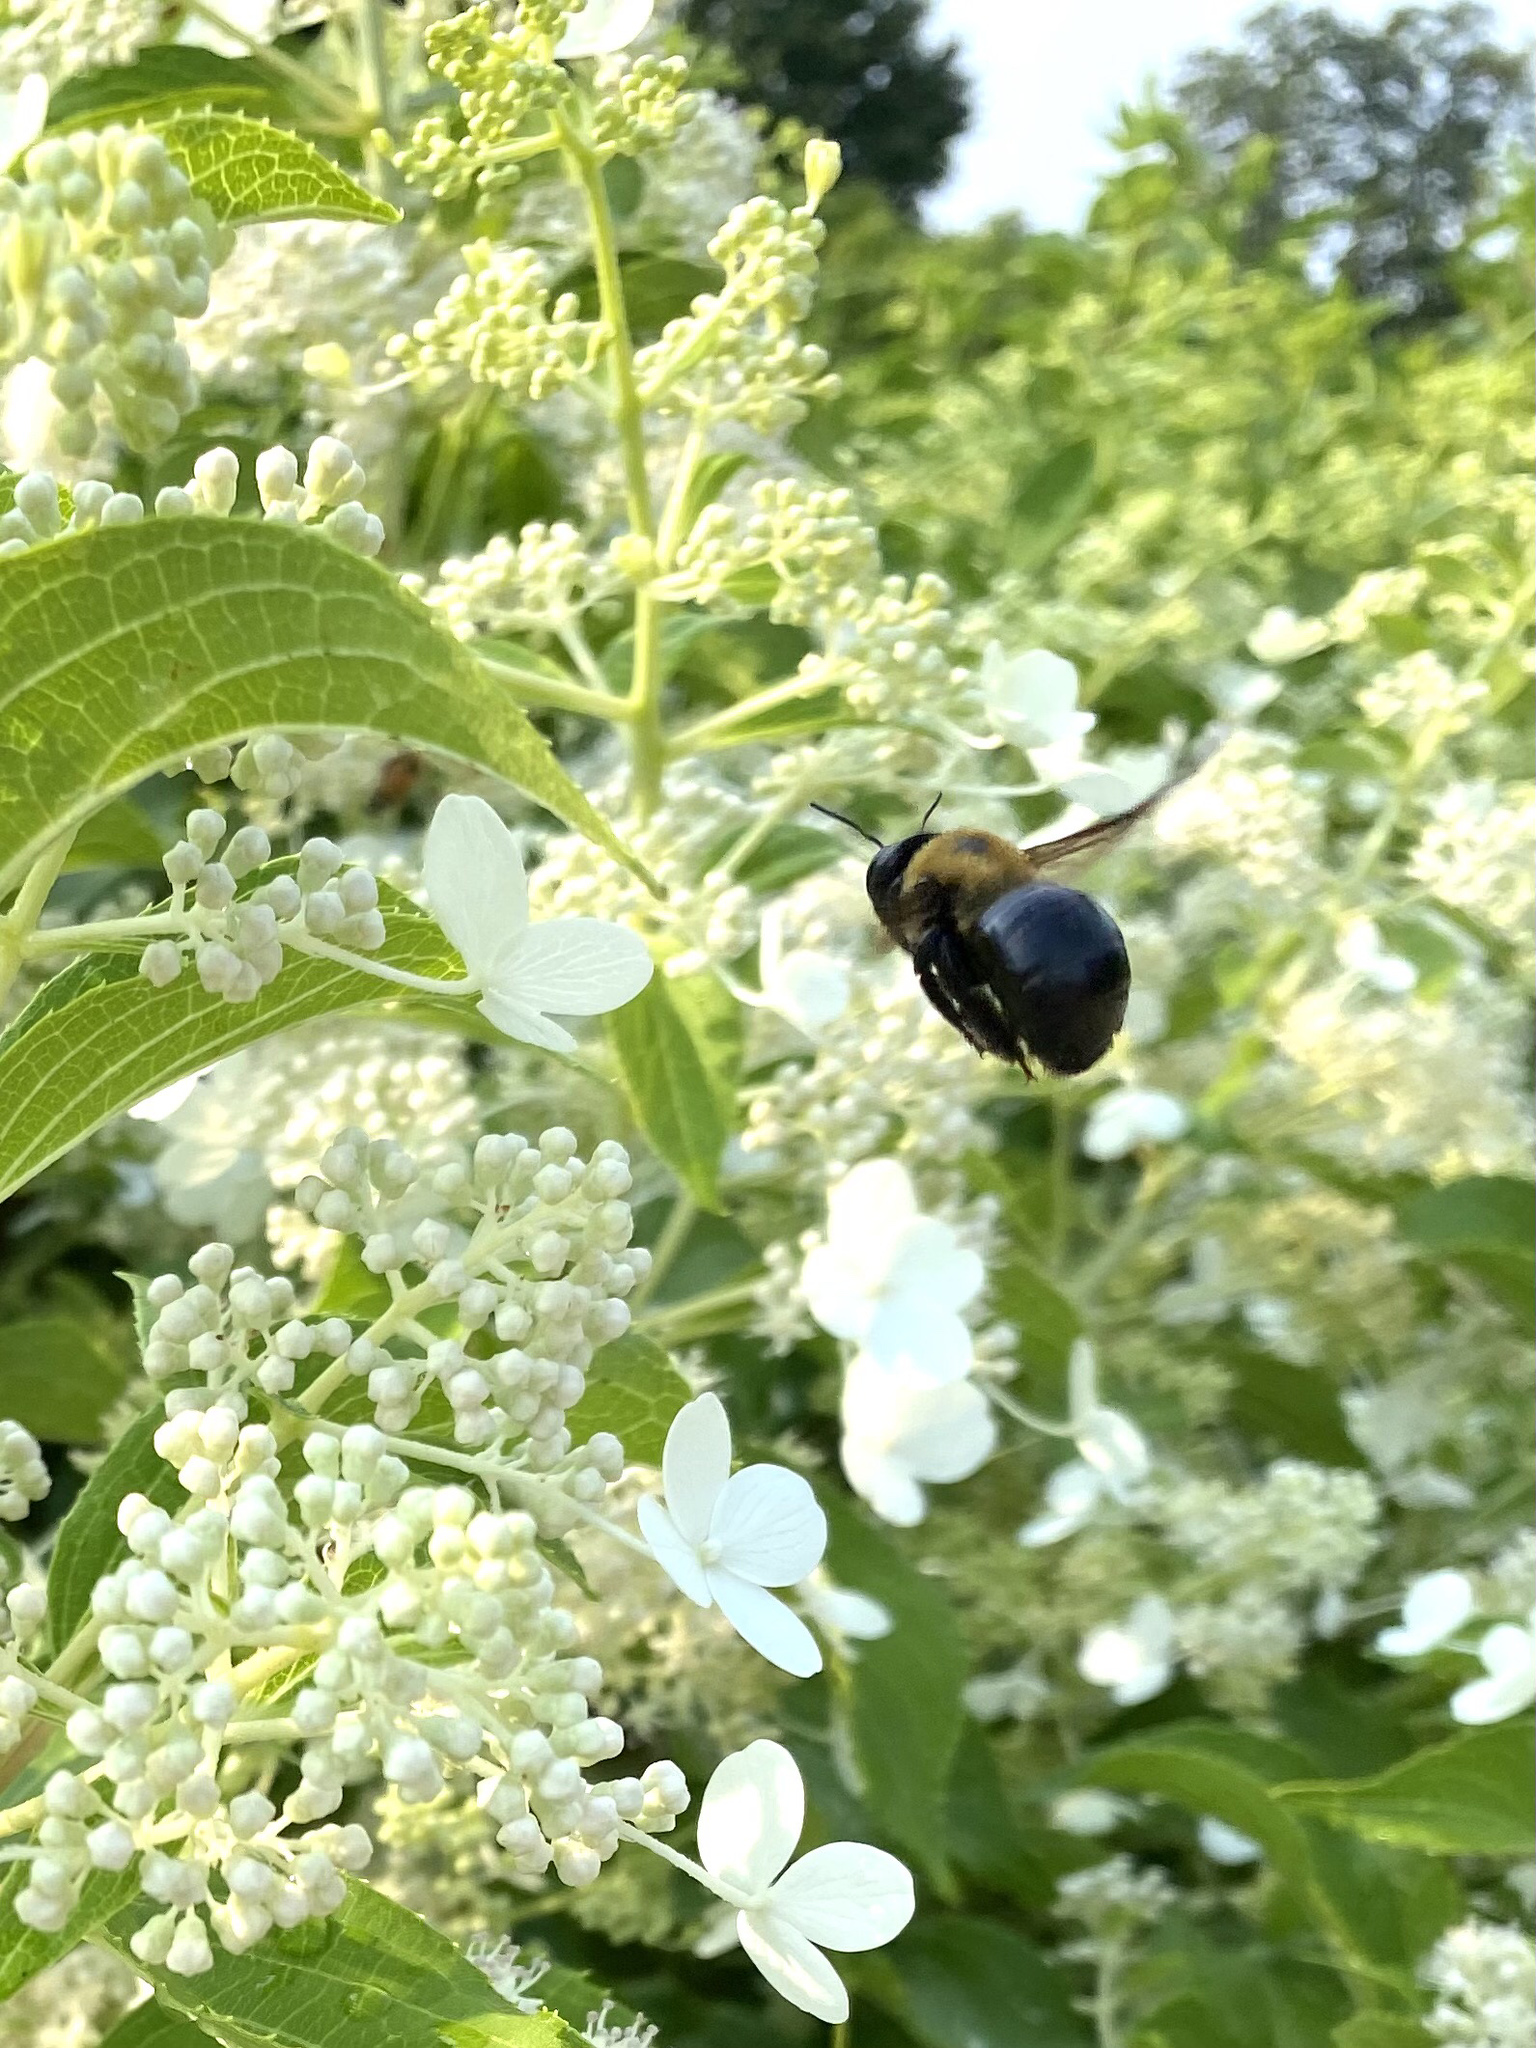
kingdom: Animalia
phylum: Arthropoda
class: Insecta
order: Hymenoptera
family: Apidae
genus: Xylocopa
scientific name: Xylocopa virginica
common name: Carpenter bee
